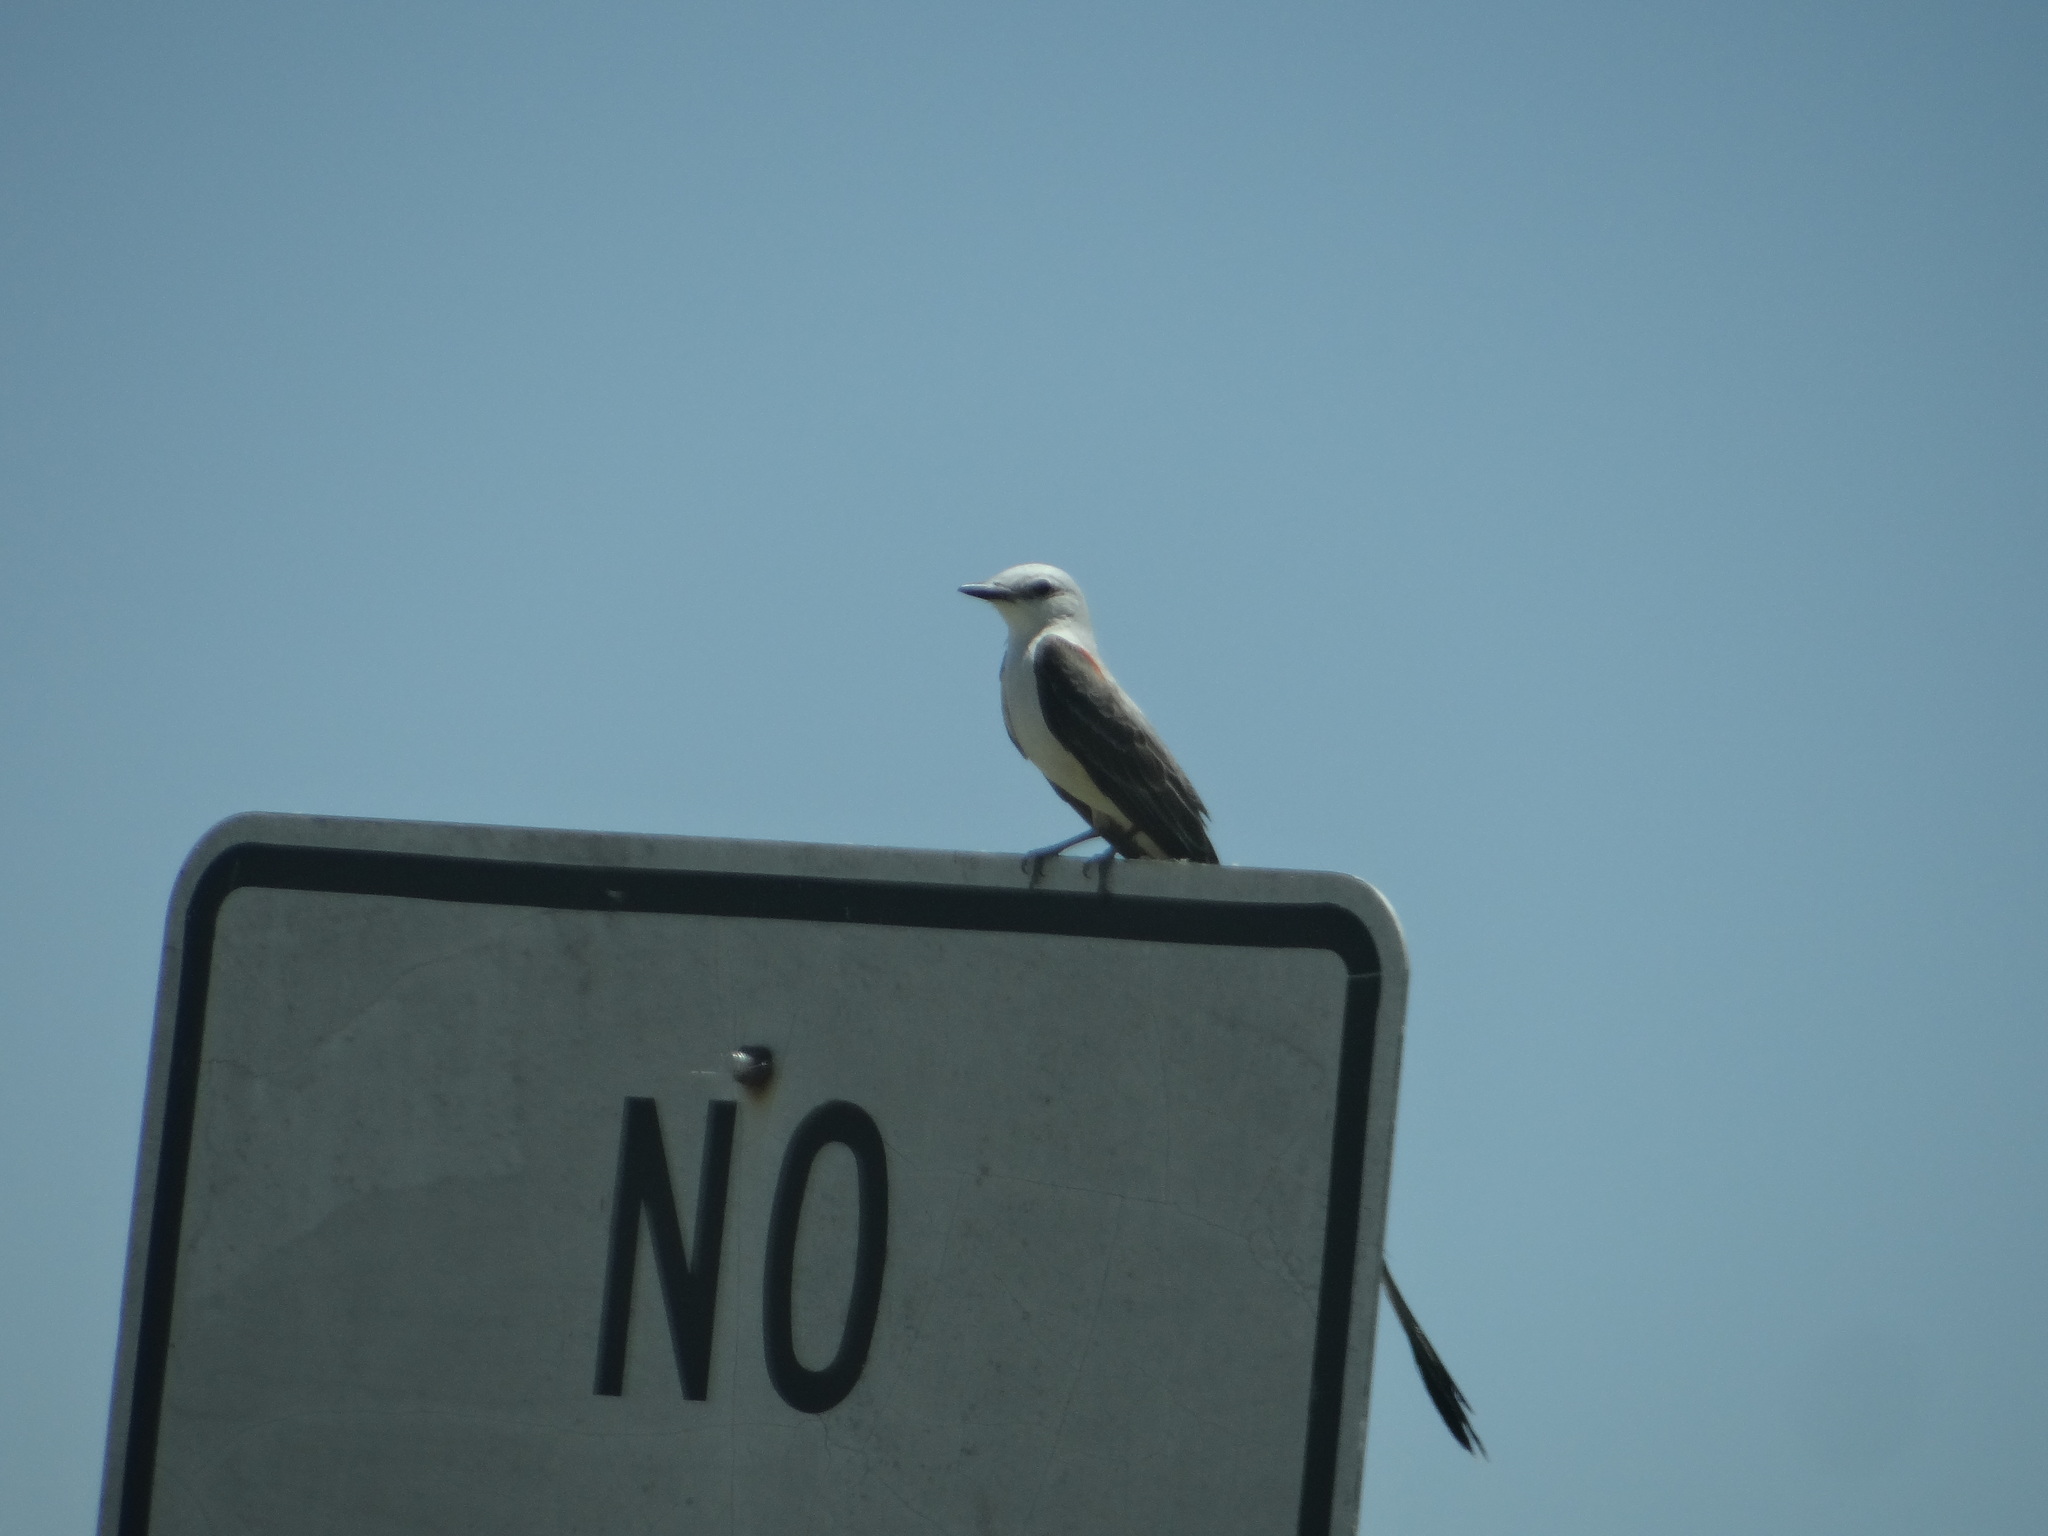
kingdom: Animalia
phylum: Chordata
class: Aves
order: Passeriformes
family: Tyrannidae
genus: Tyrannus
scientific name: Tyrannus forficatus
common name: Scissor-tailed flycatcher
